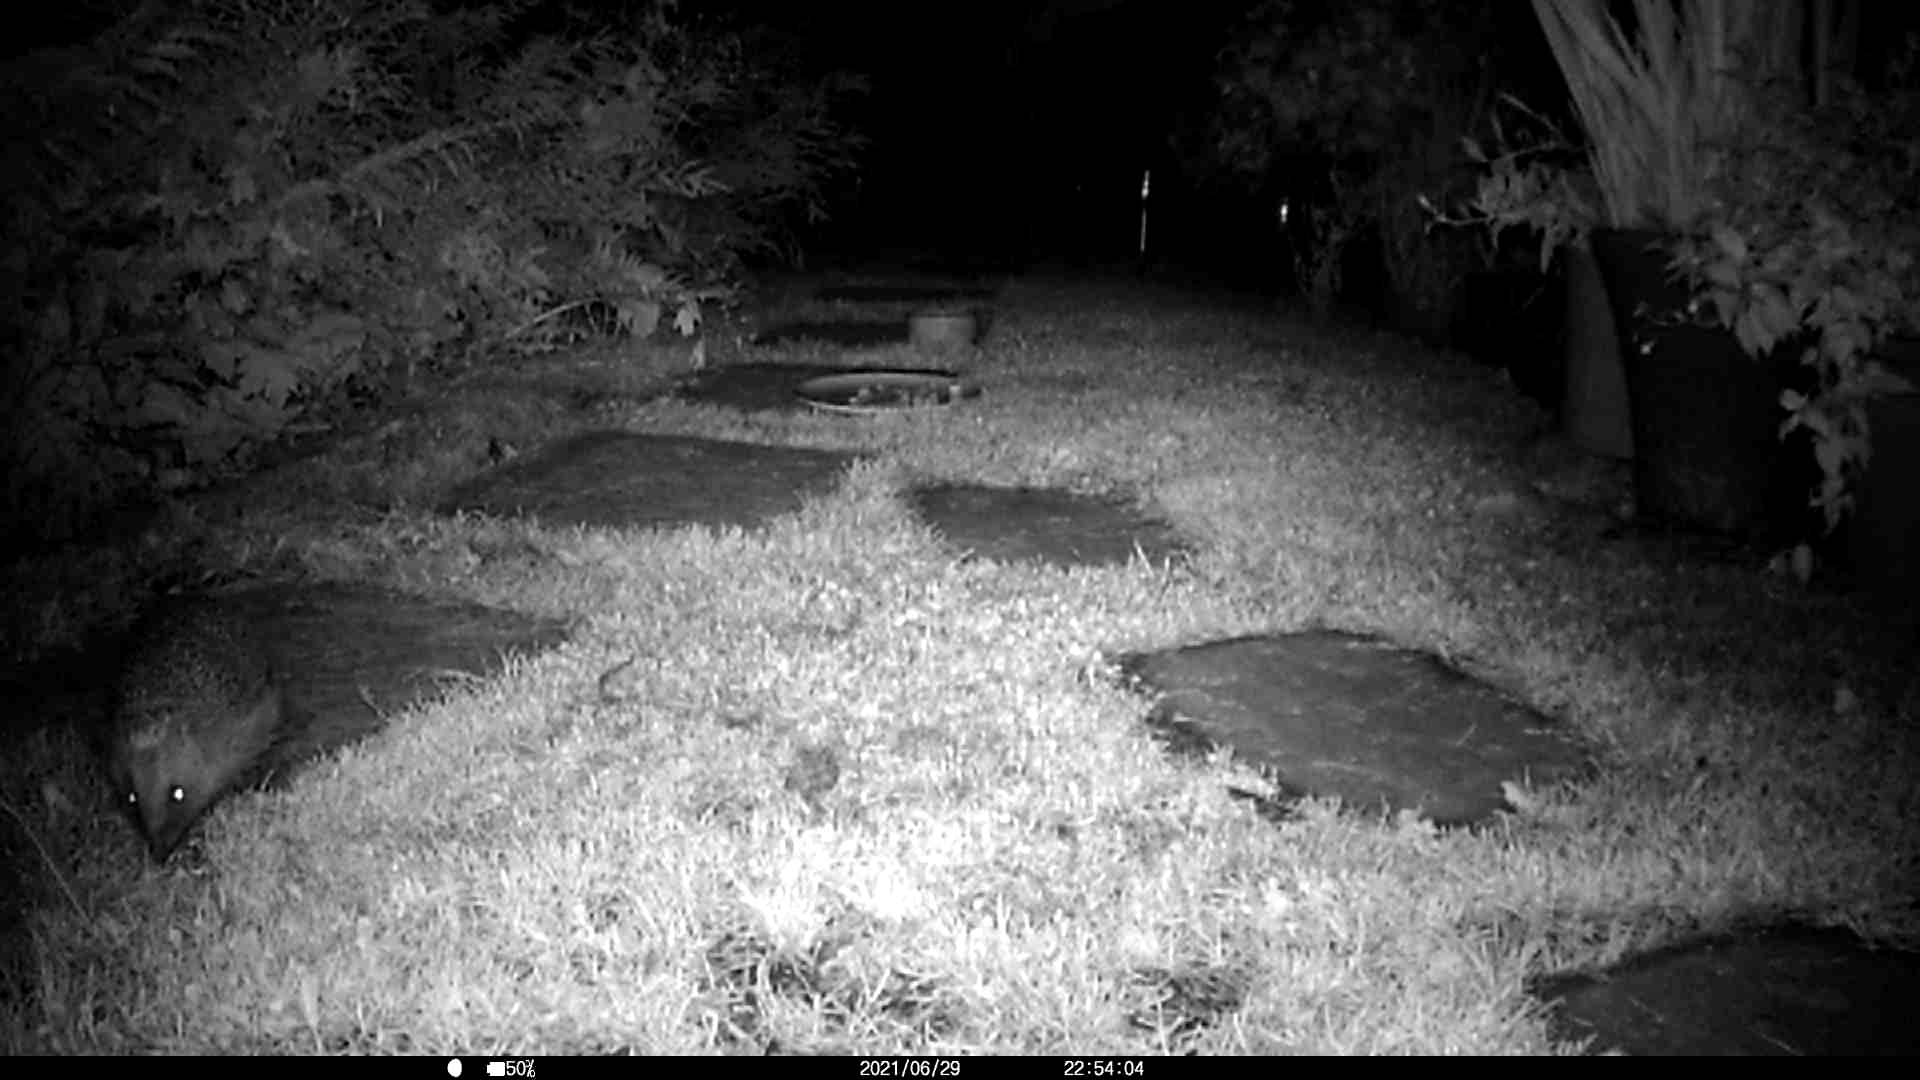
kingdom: Animalia
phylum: Chordata
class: Mammalia
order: Erinaceomorpha
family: Erinaceidae
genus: Erinaceus
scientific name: Erinaceus europaeus
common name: West european hedgehog
